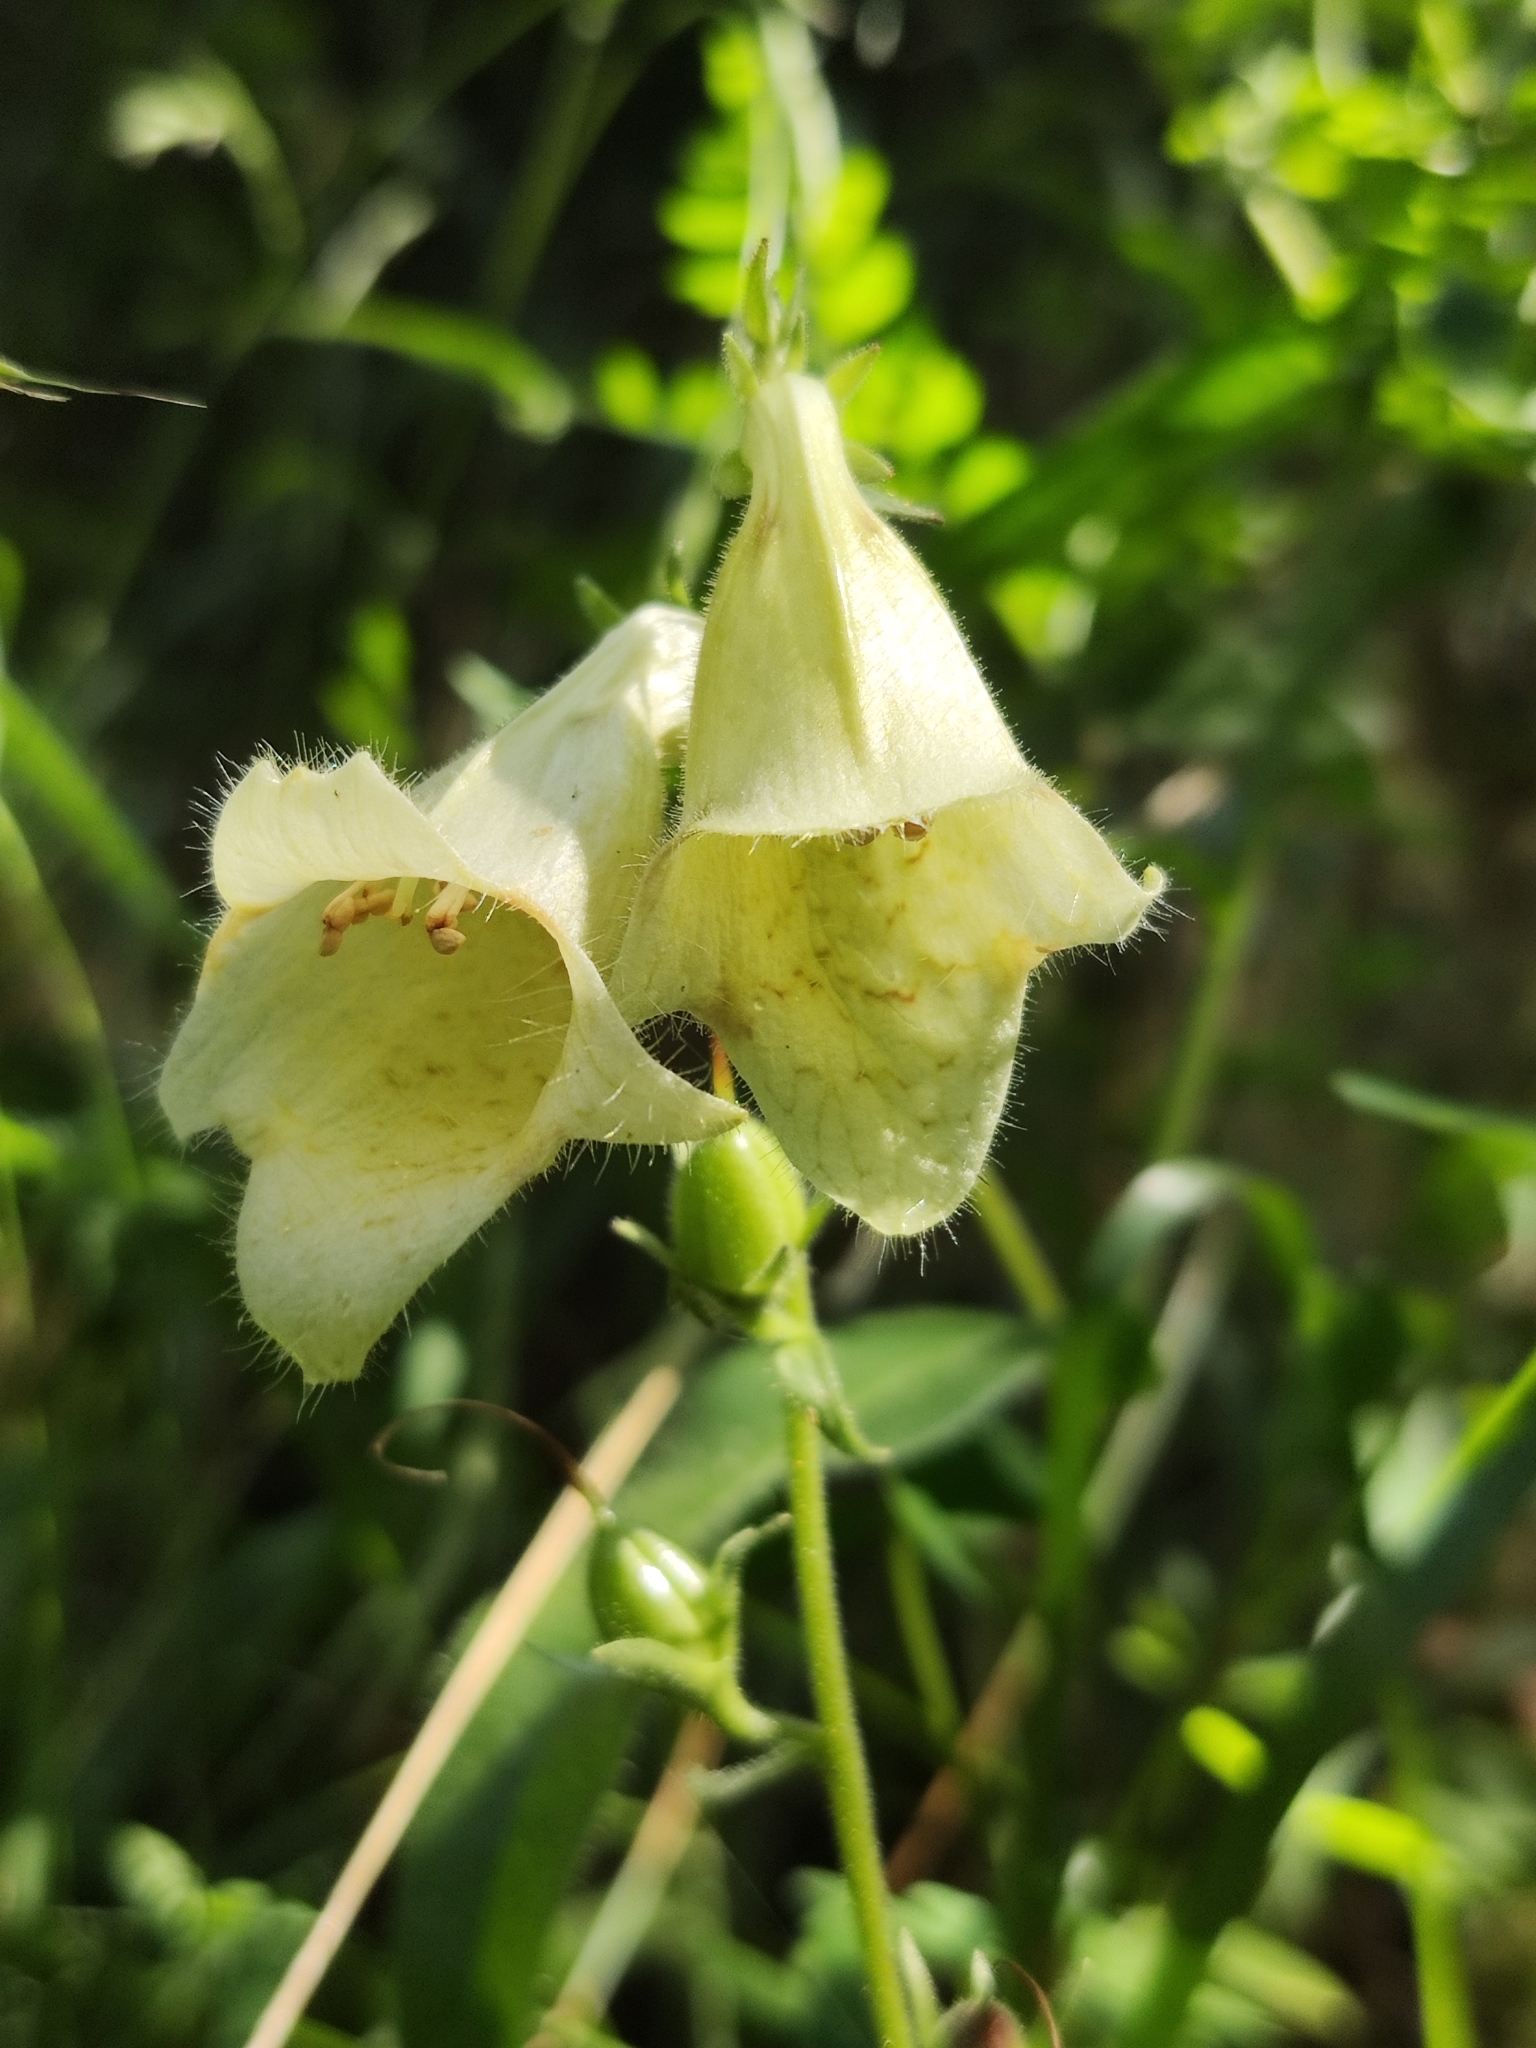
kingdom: Plantae
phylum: Tracheophyta
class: Magnoliopsida
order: Lamiales
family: Plantaginaceae
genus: Digitalis
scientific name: Digitalis grandiflora
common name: Yellow foxglove
